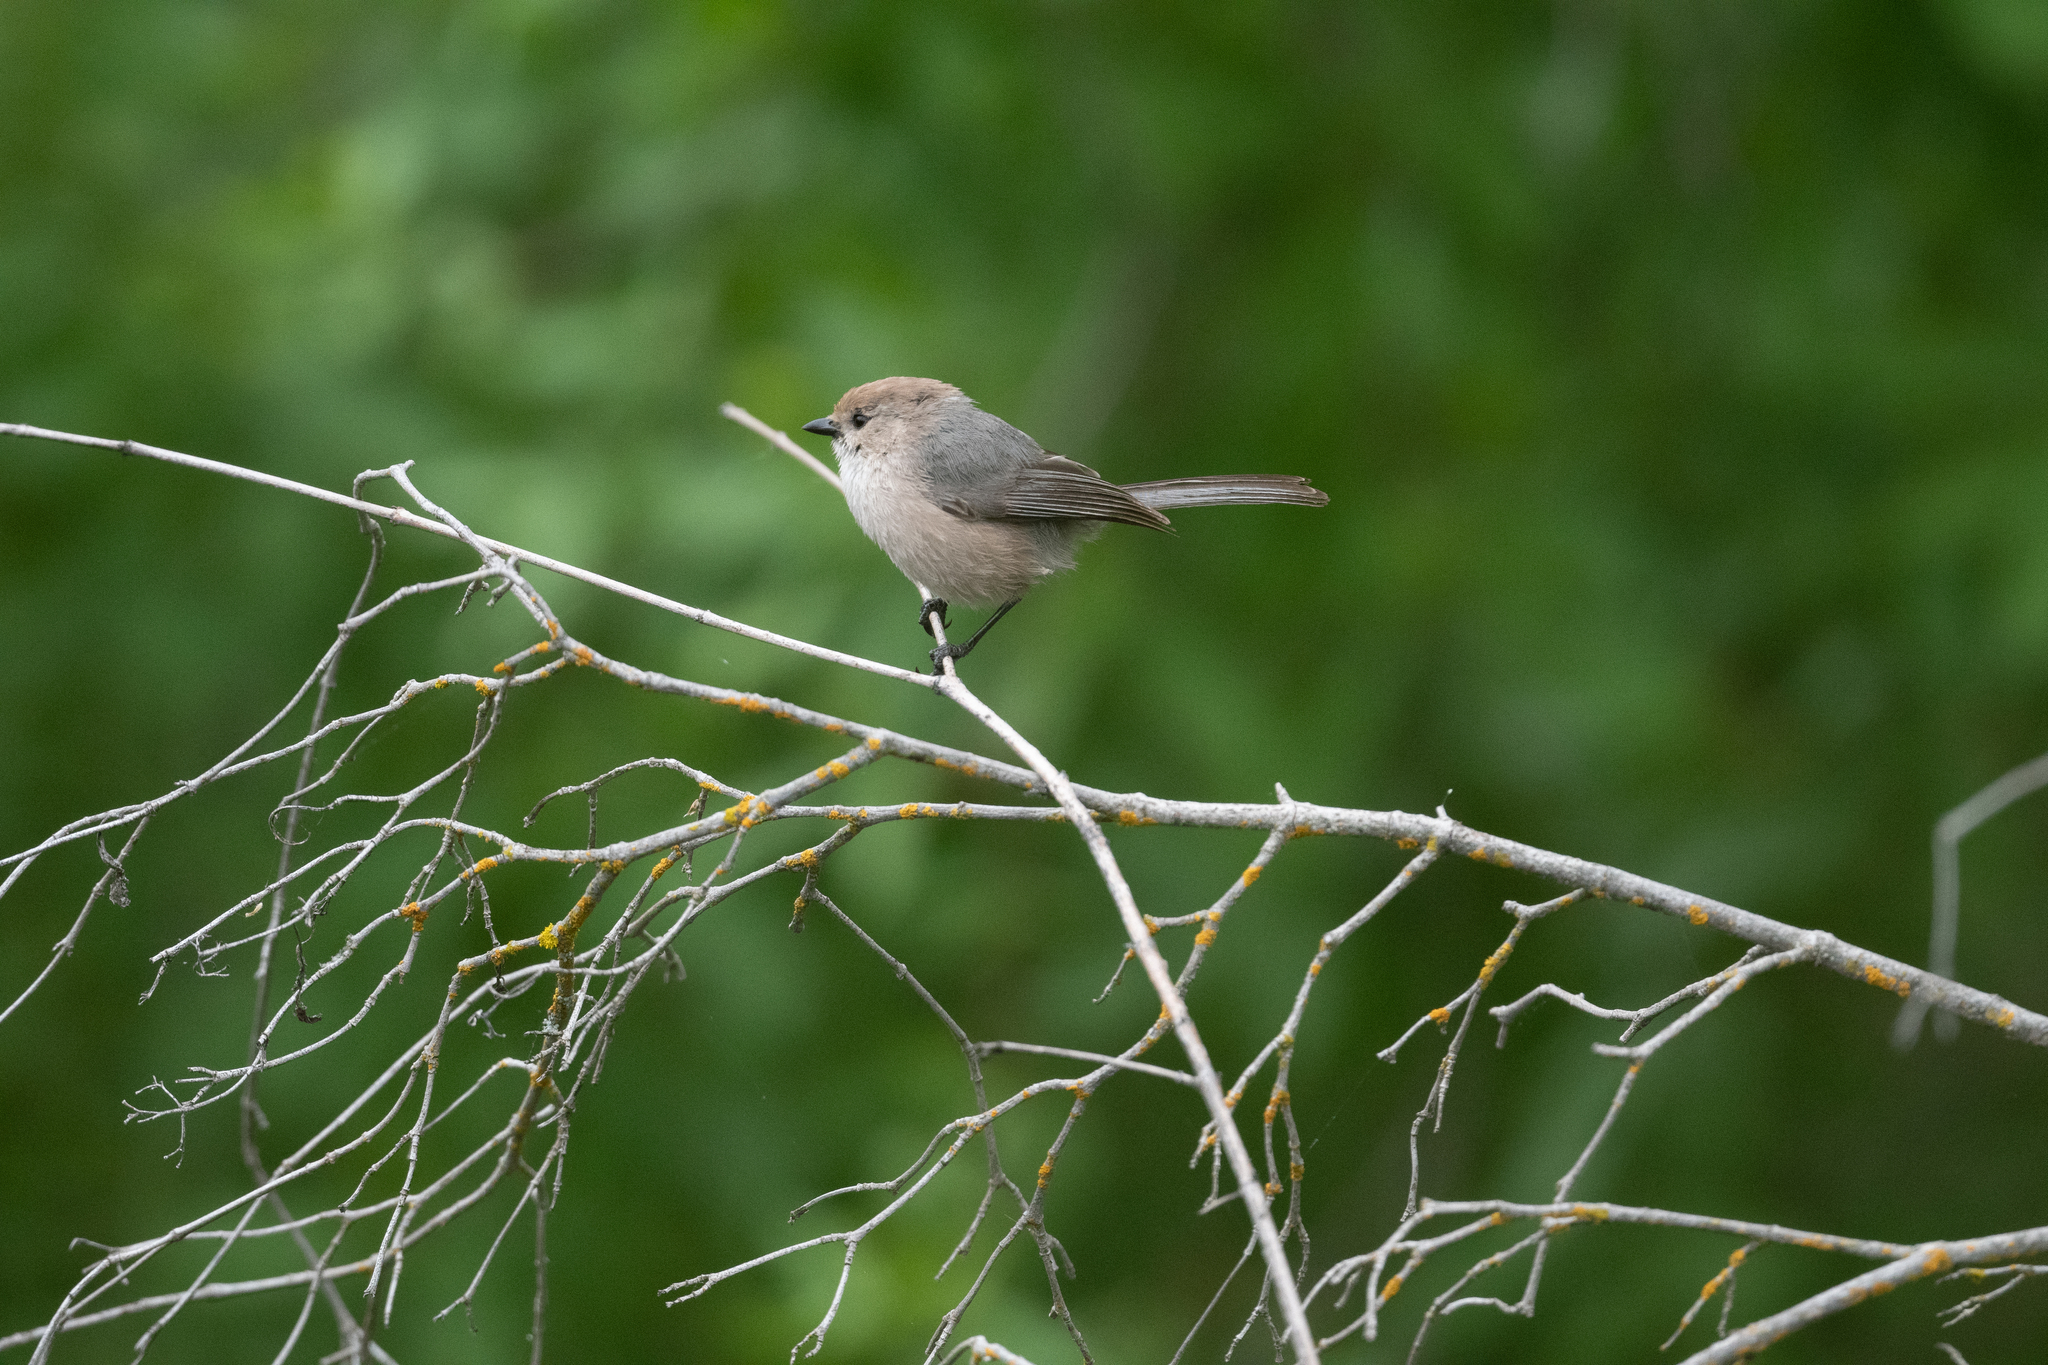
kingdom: Animalia
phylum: Chordata
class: Aves
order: Passeriformes
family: Aegithalidae
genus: Psaltriparus
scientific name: Psaltriparus minimus
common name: American bushtit
